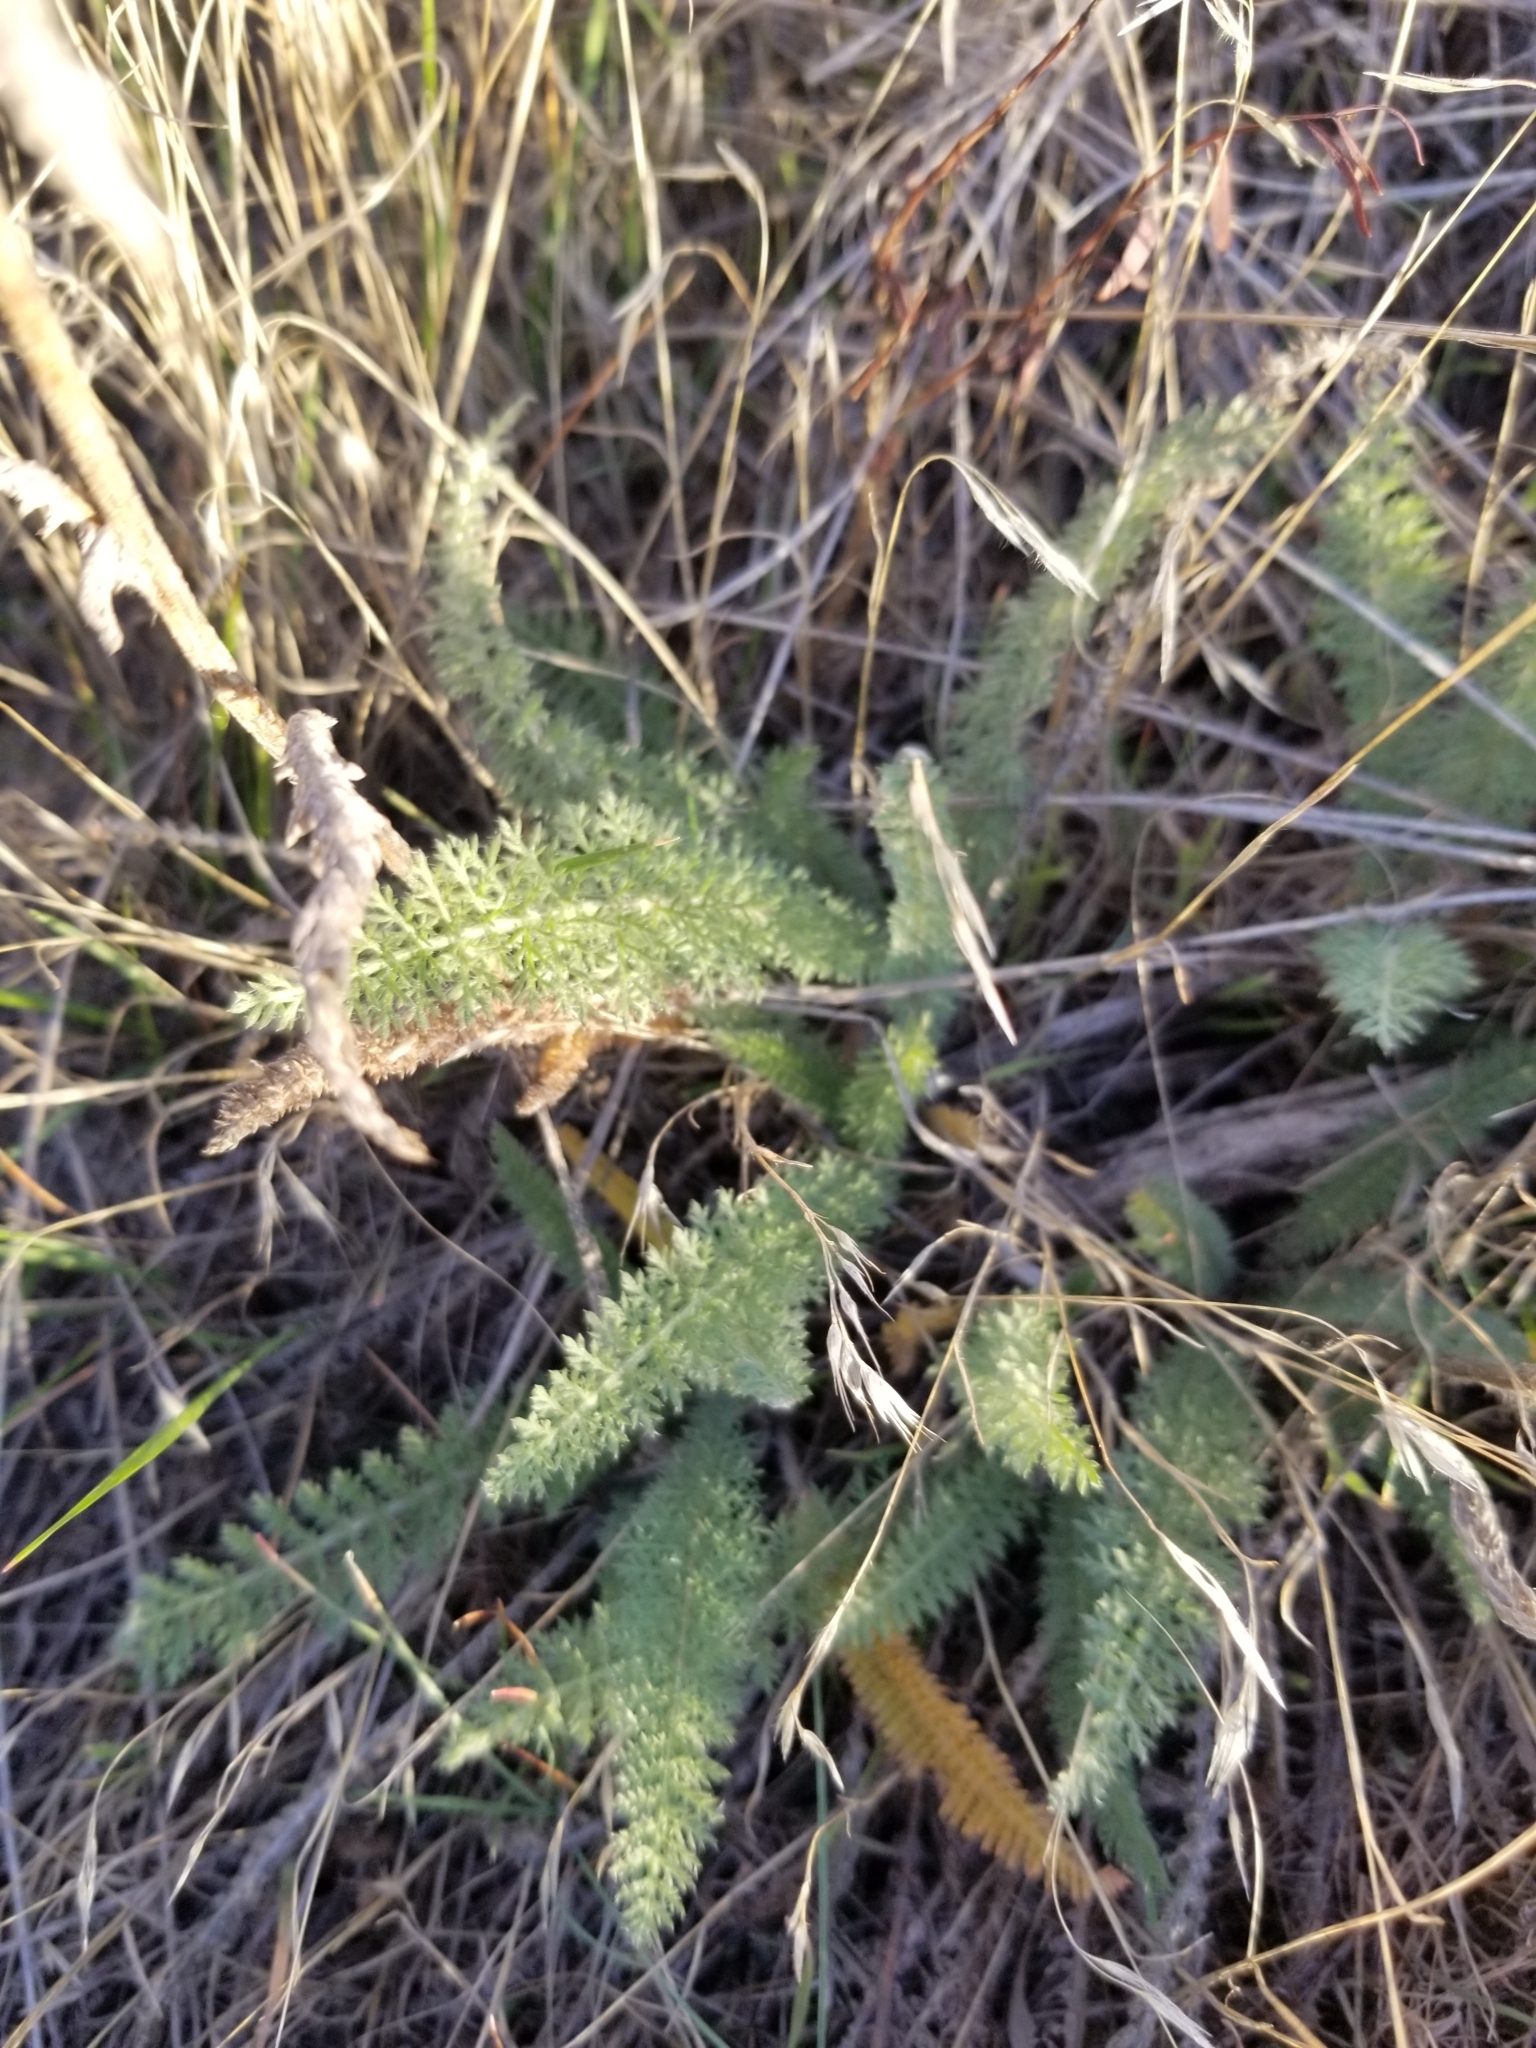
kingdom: Plantae
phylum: Tracheophyta
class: Magnoliopsida
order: Asterales
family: Asteraceae
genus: Achillea
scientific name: Achillea millefolium
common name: Yarrow
